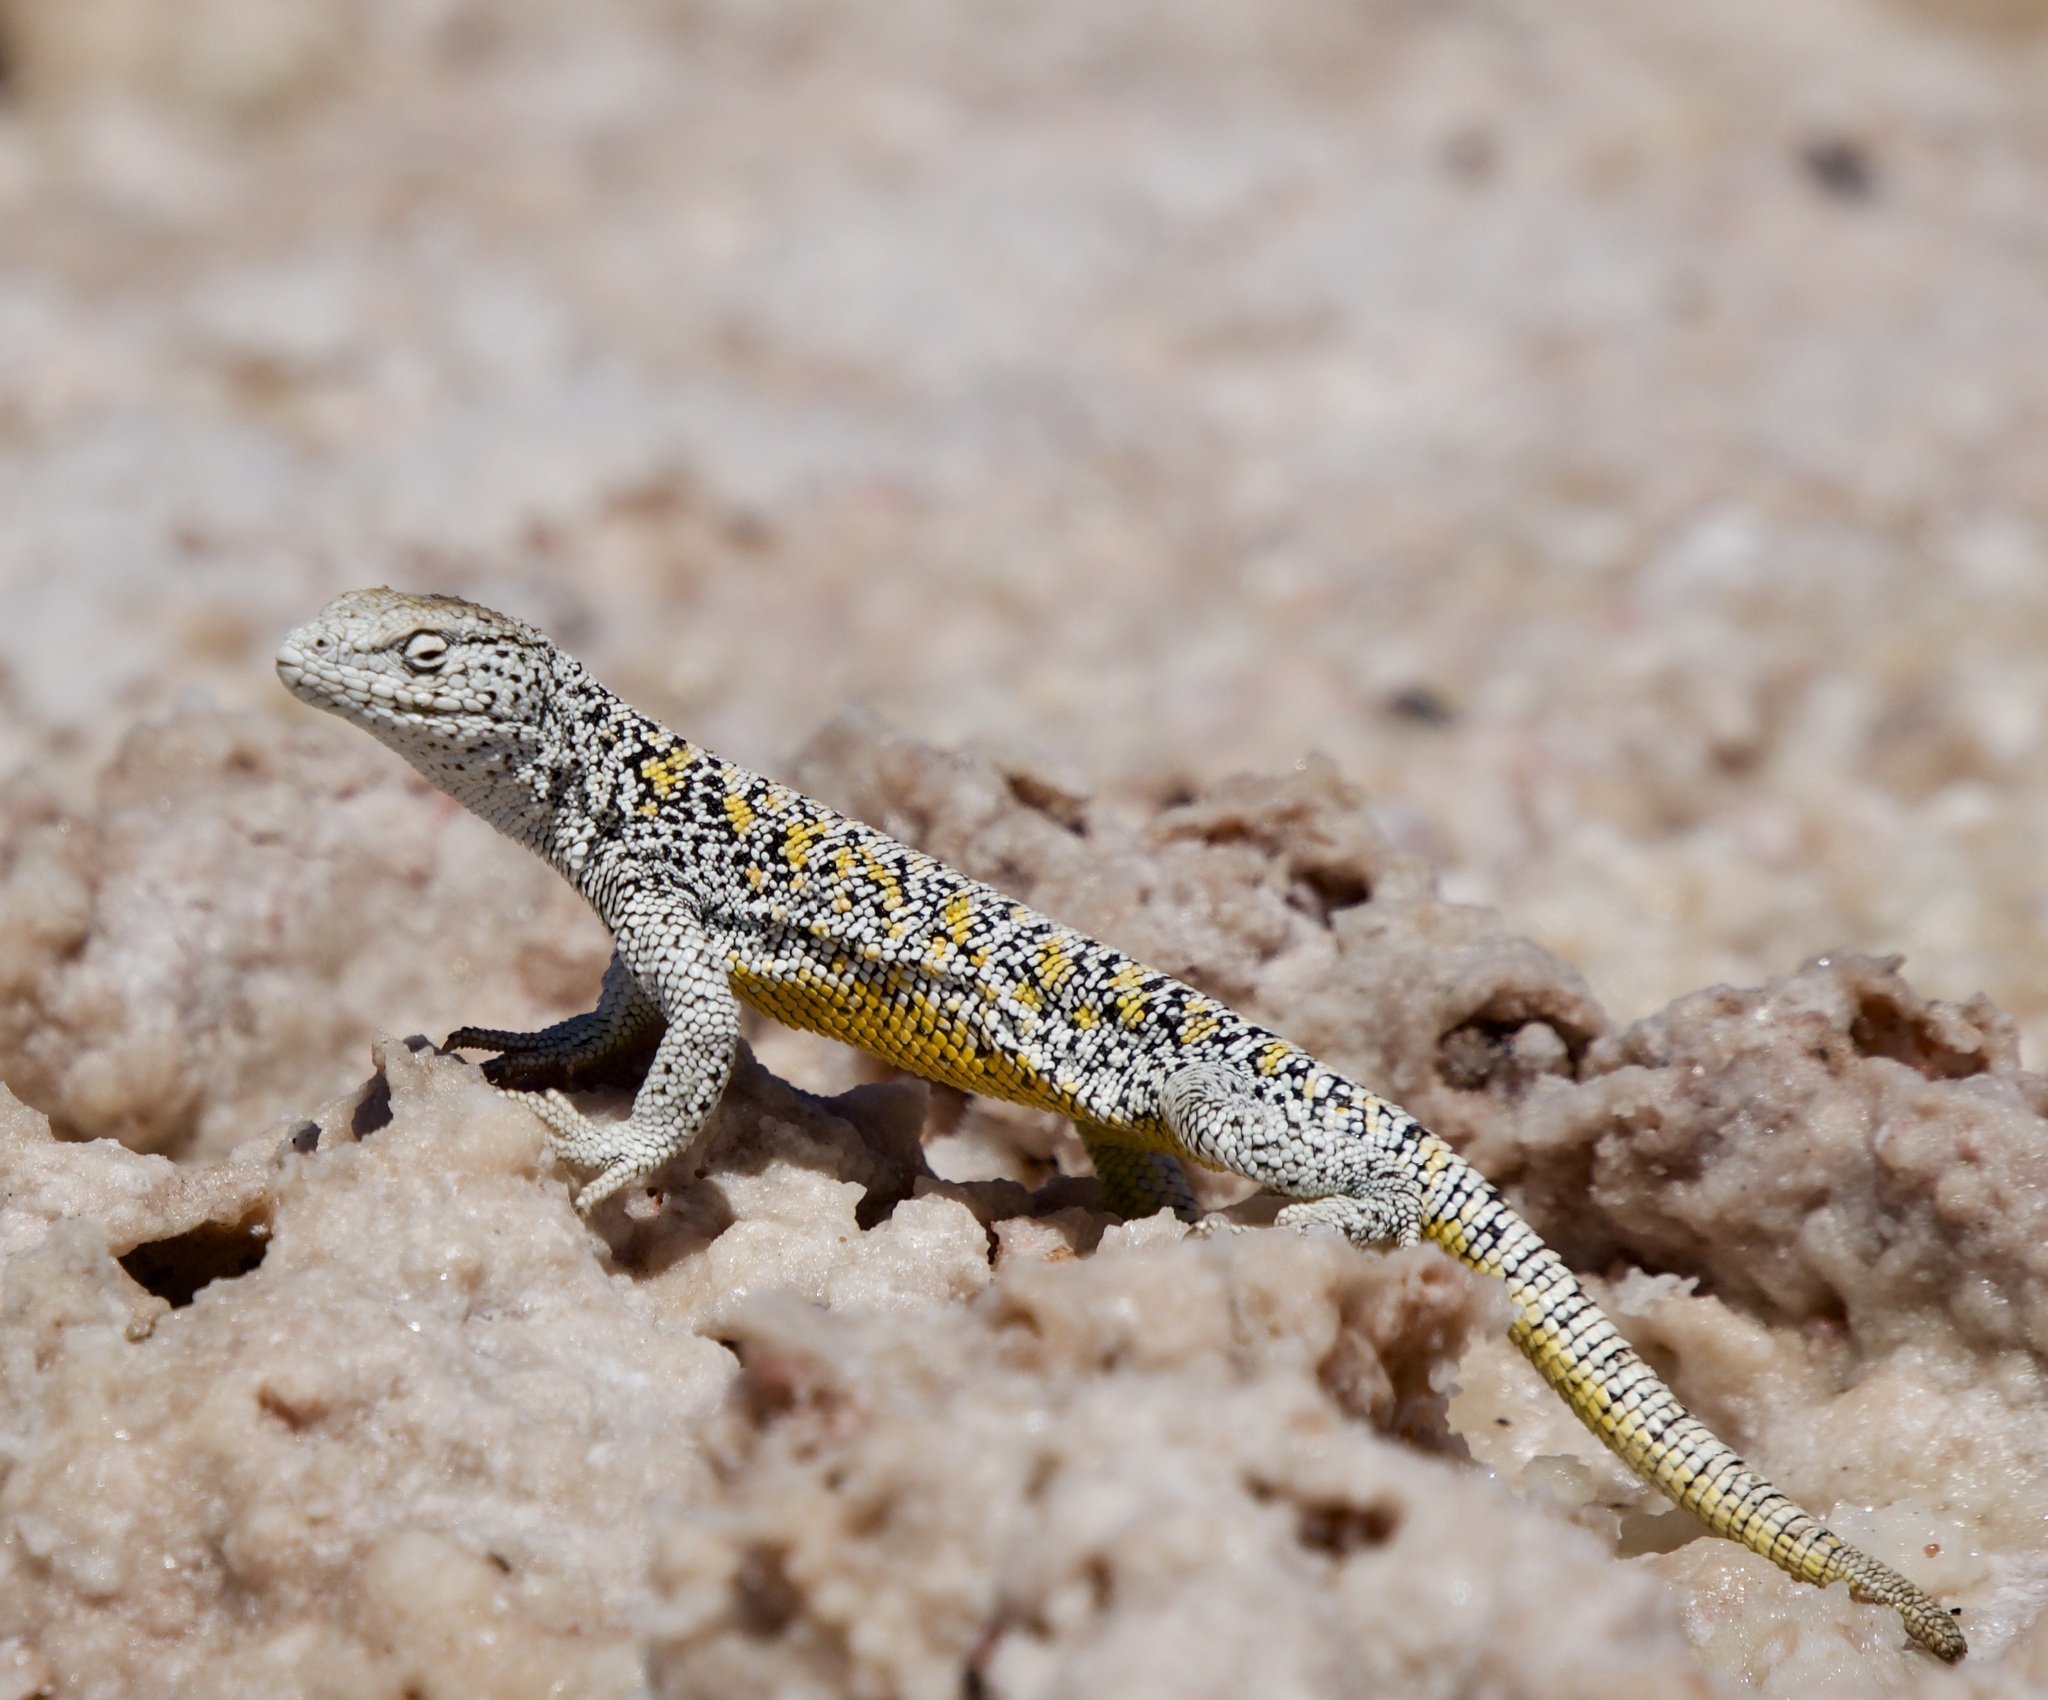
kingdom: Animalia
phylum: Chordata
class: Squamata
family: Liolaemidae
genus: Liolaemus
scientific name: Liolaemus fabiani
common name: Fabian’s lizard
